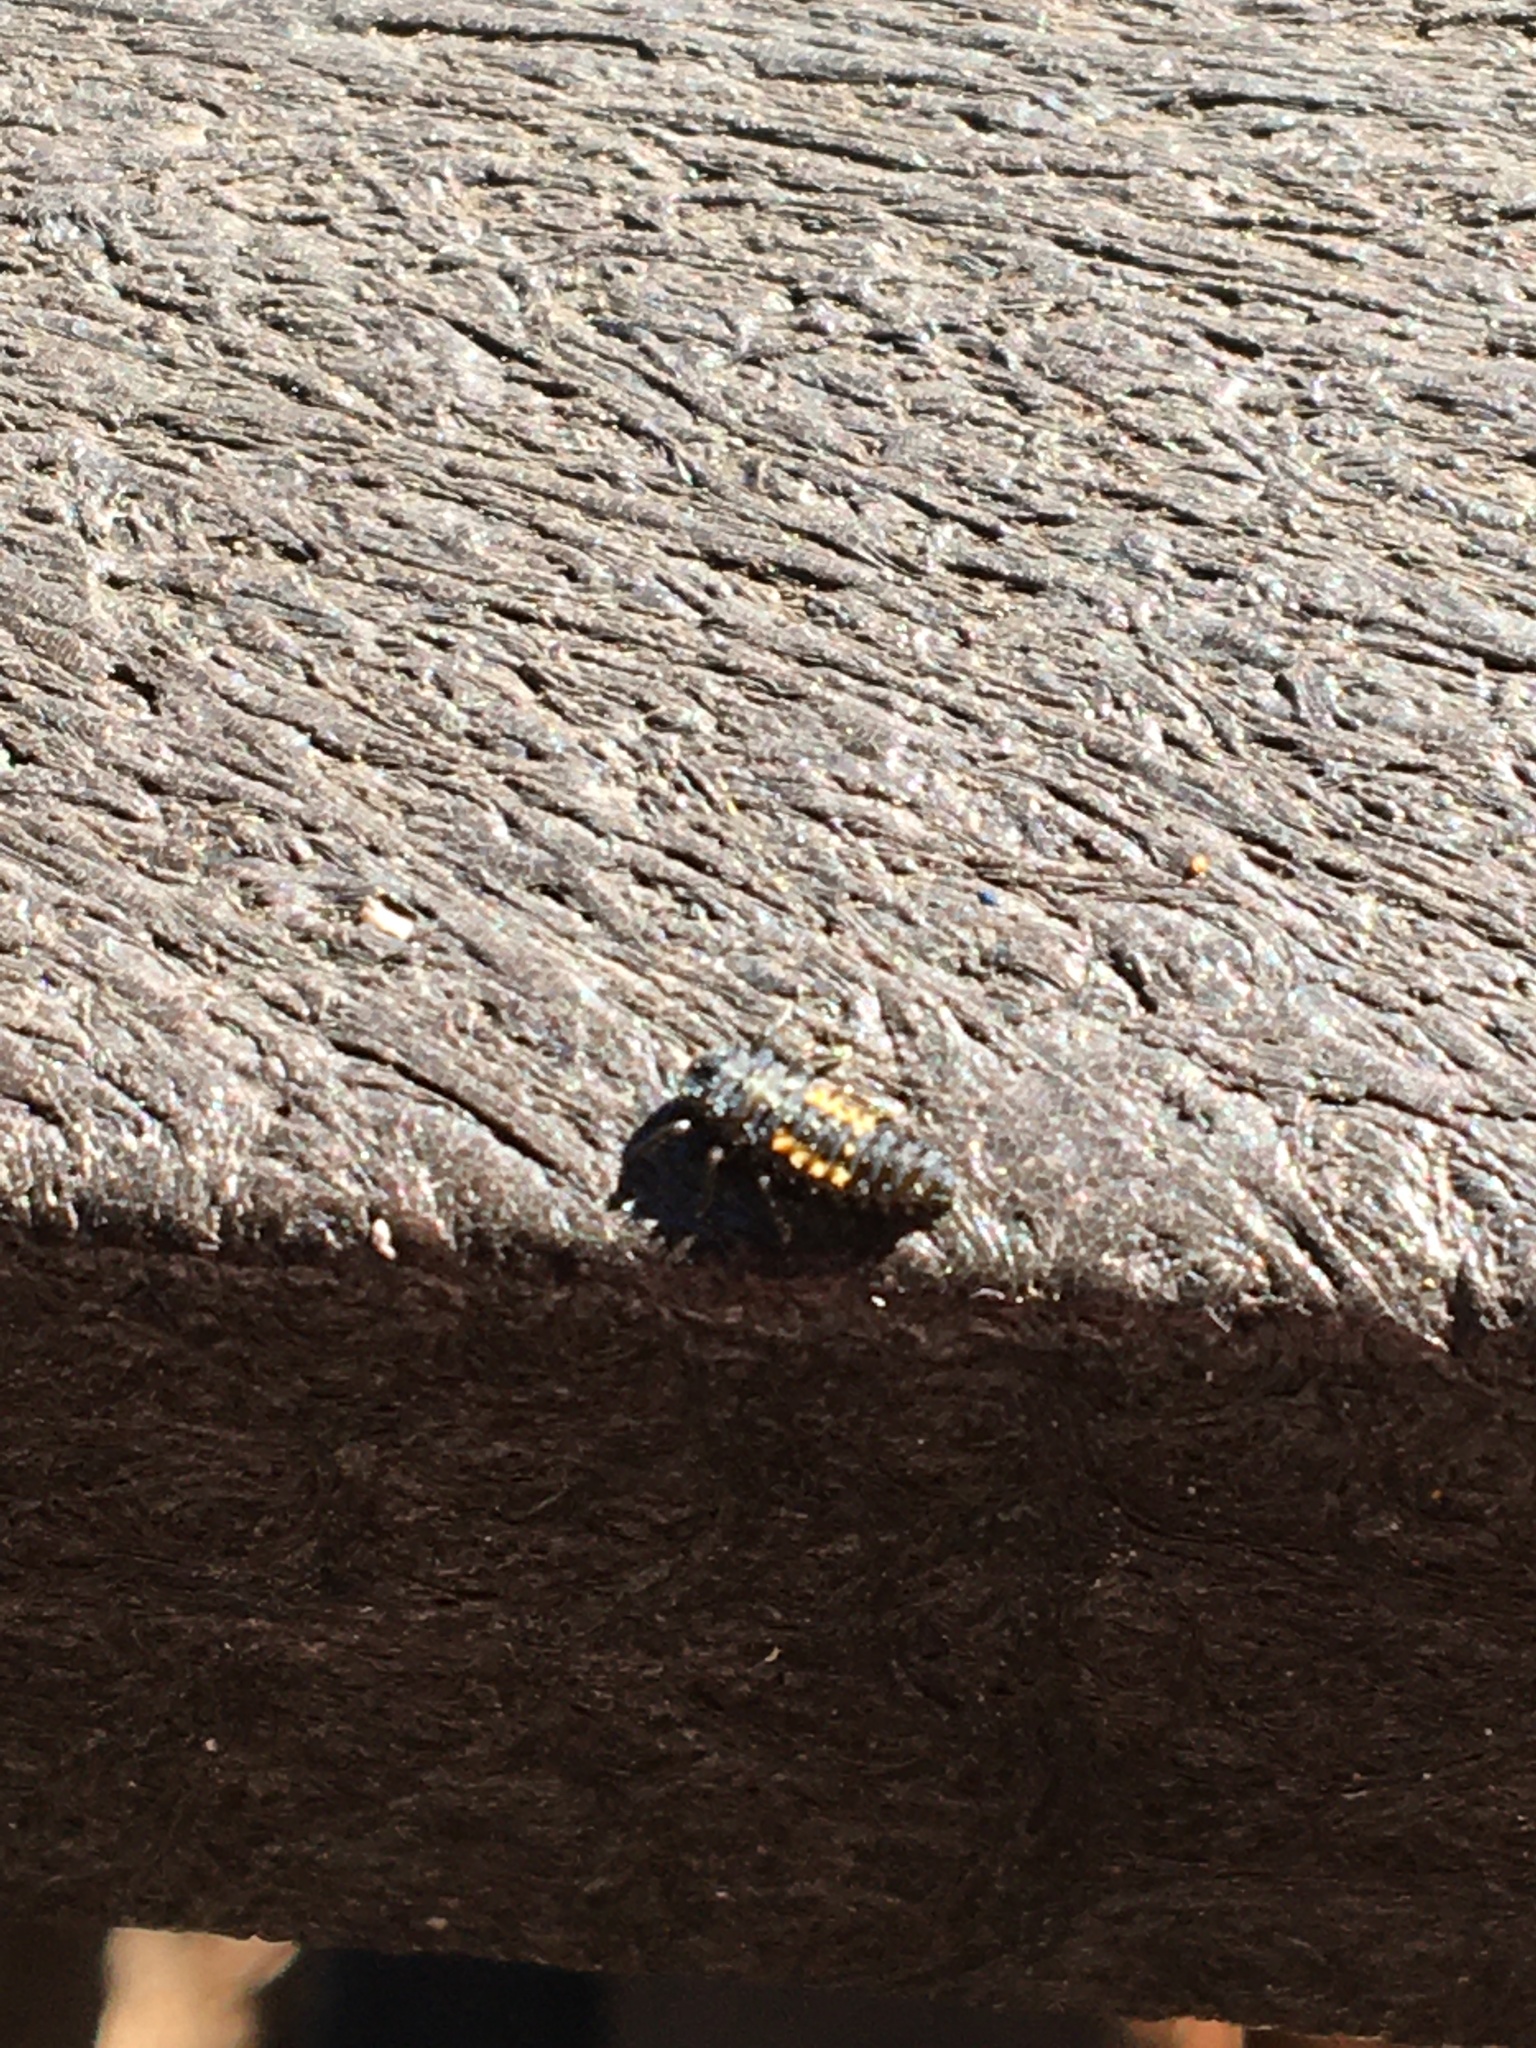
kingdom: Animalia
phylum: Arthropoda
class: Insecta
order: Coleoptera
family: Coccinellidae
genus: Harmonia
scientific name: Harmonia axyridis
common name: Harlequin ladybird
